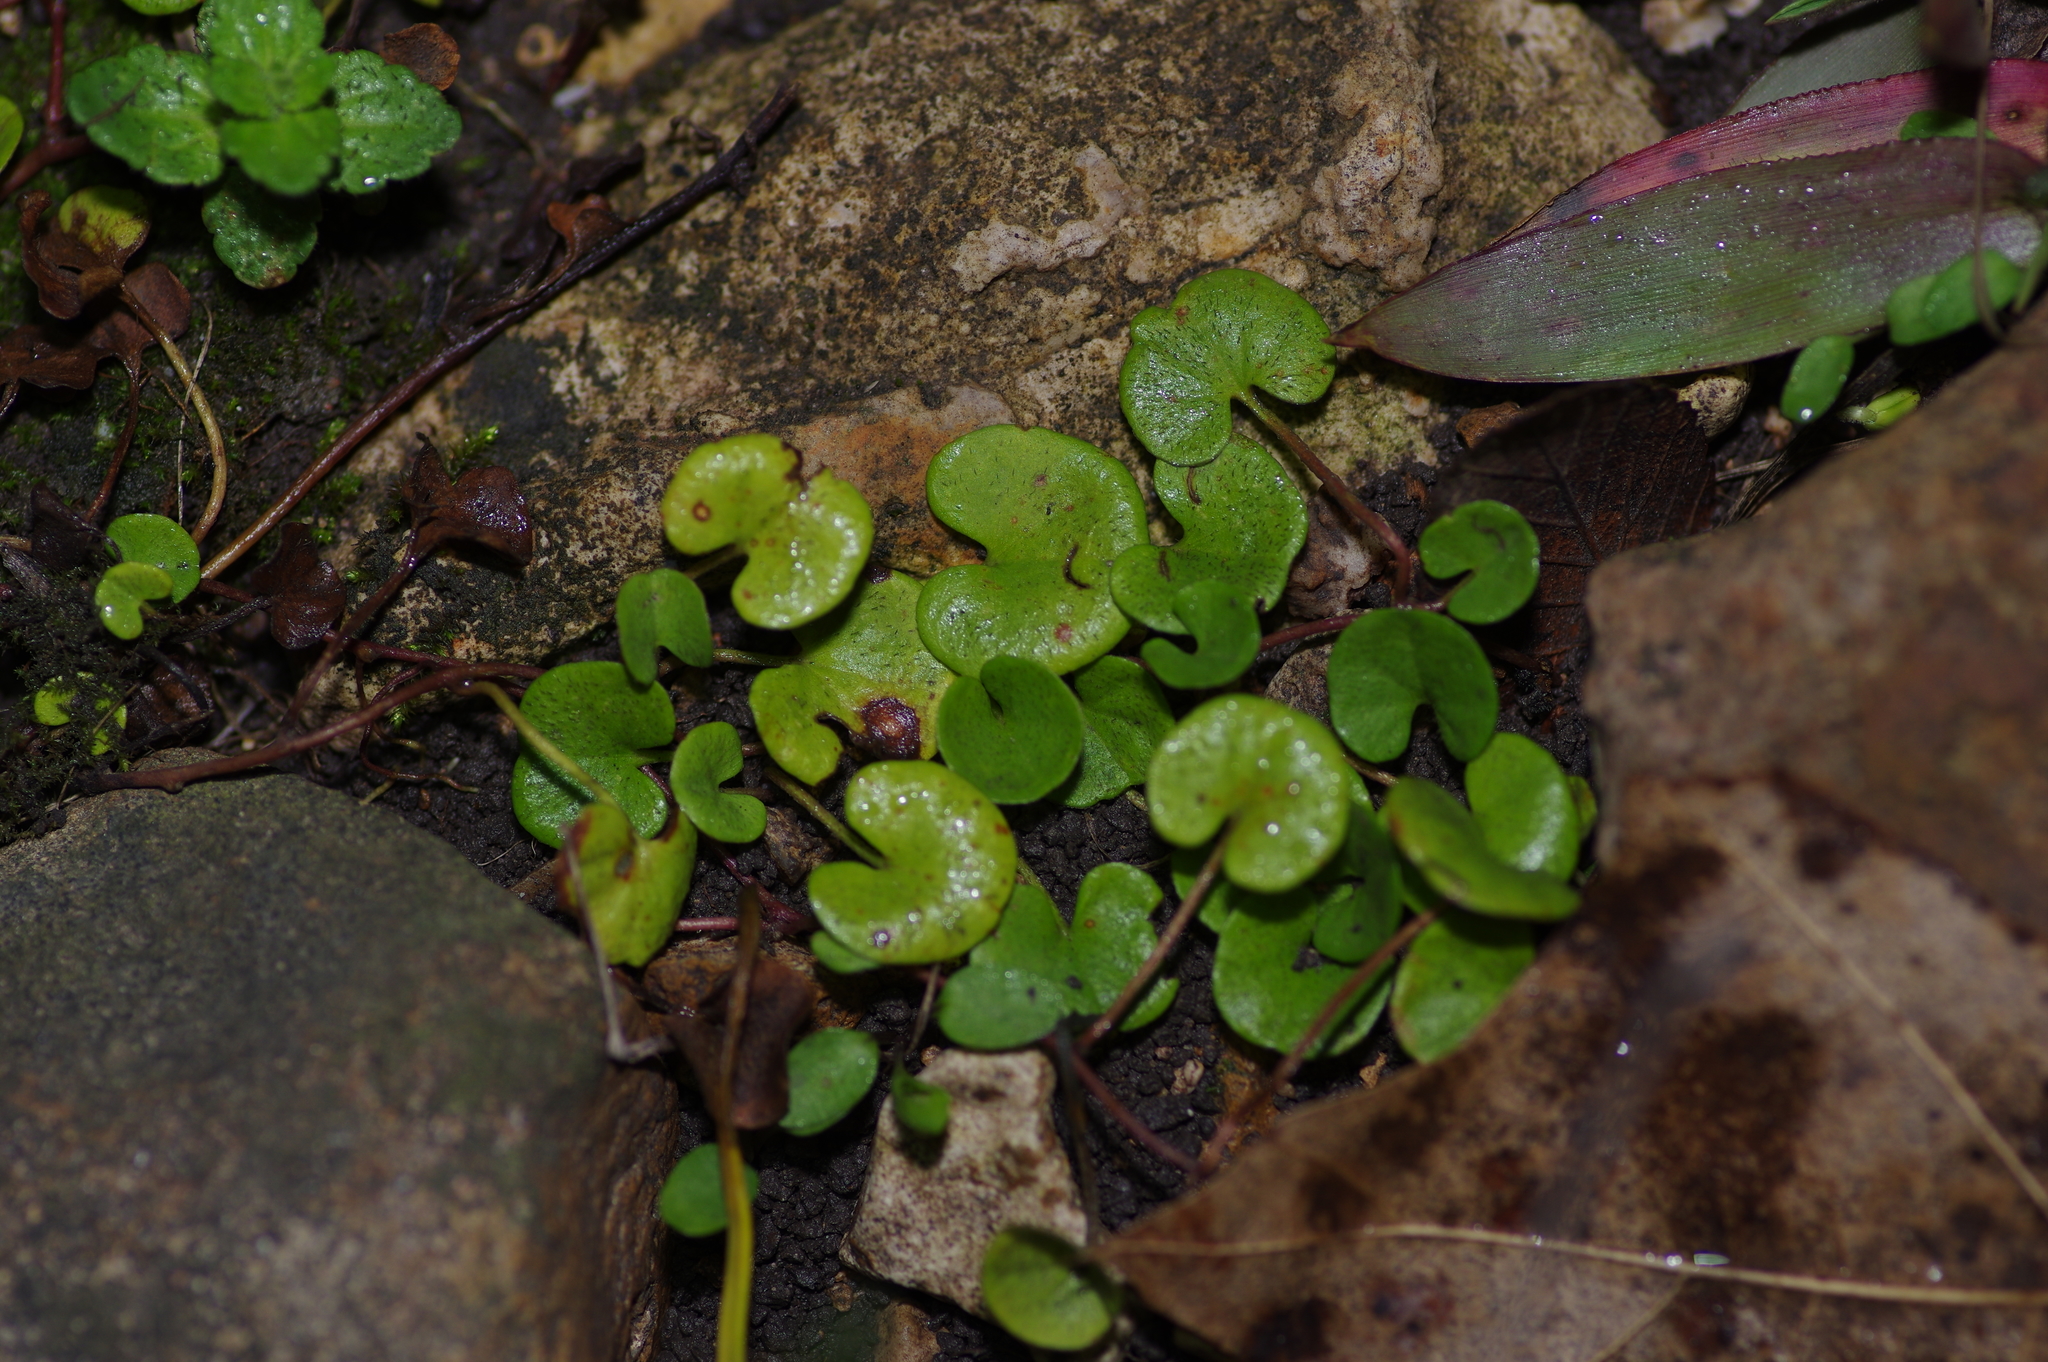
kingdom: Plantae
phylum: Tracheophyta
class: Magnoliopsida
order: Solanales
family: Convolvulaceae
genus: Dichondra
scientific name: Dichondra carolinensis
